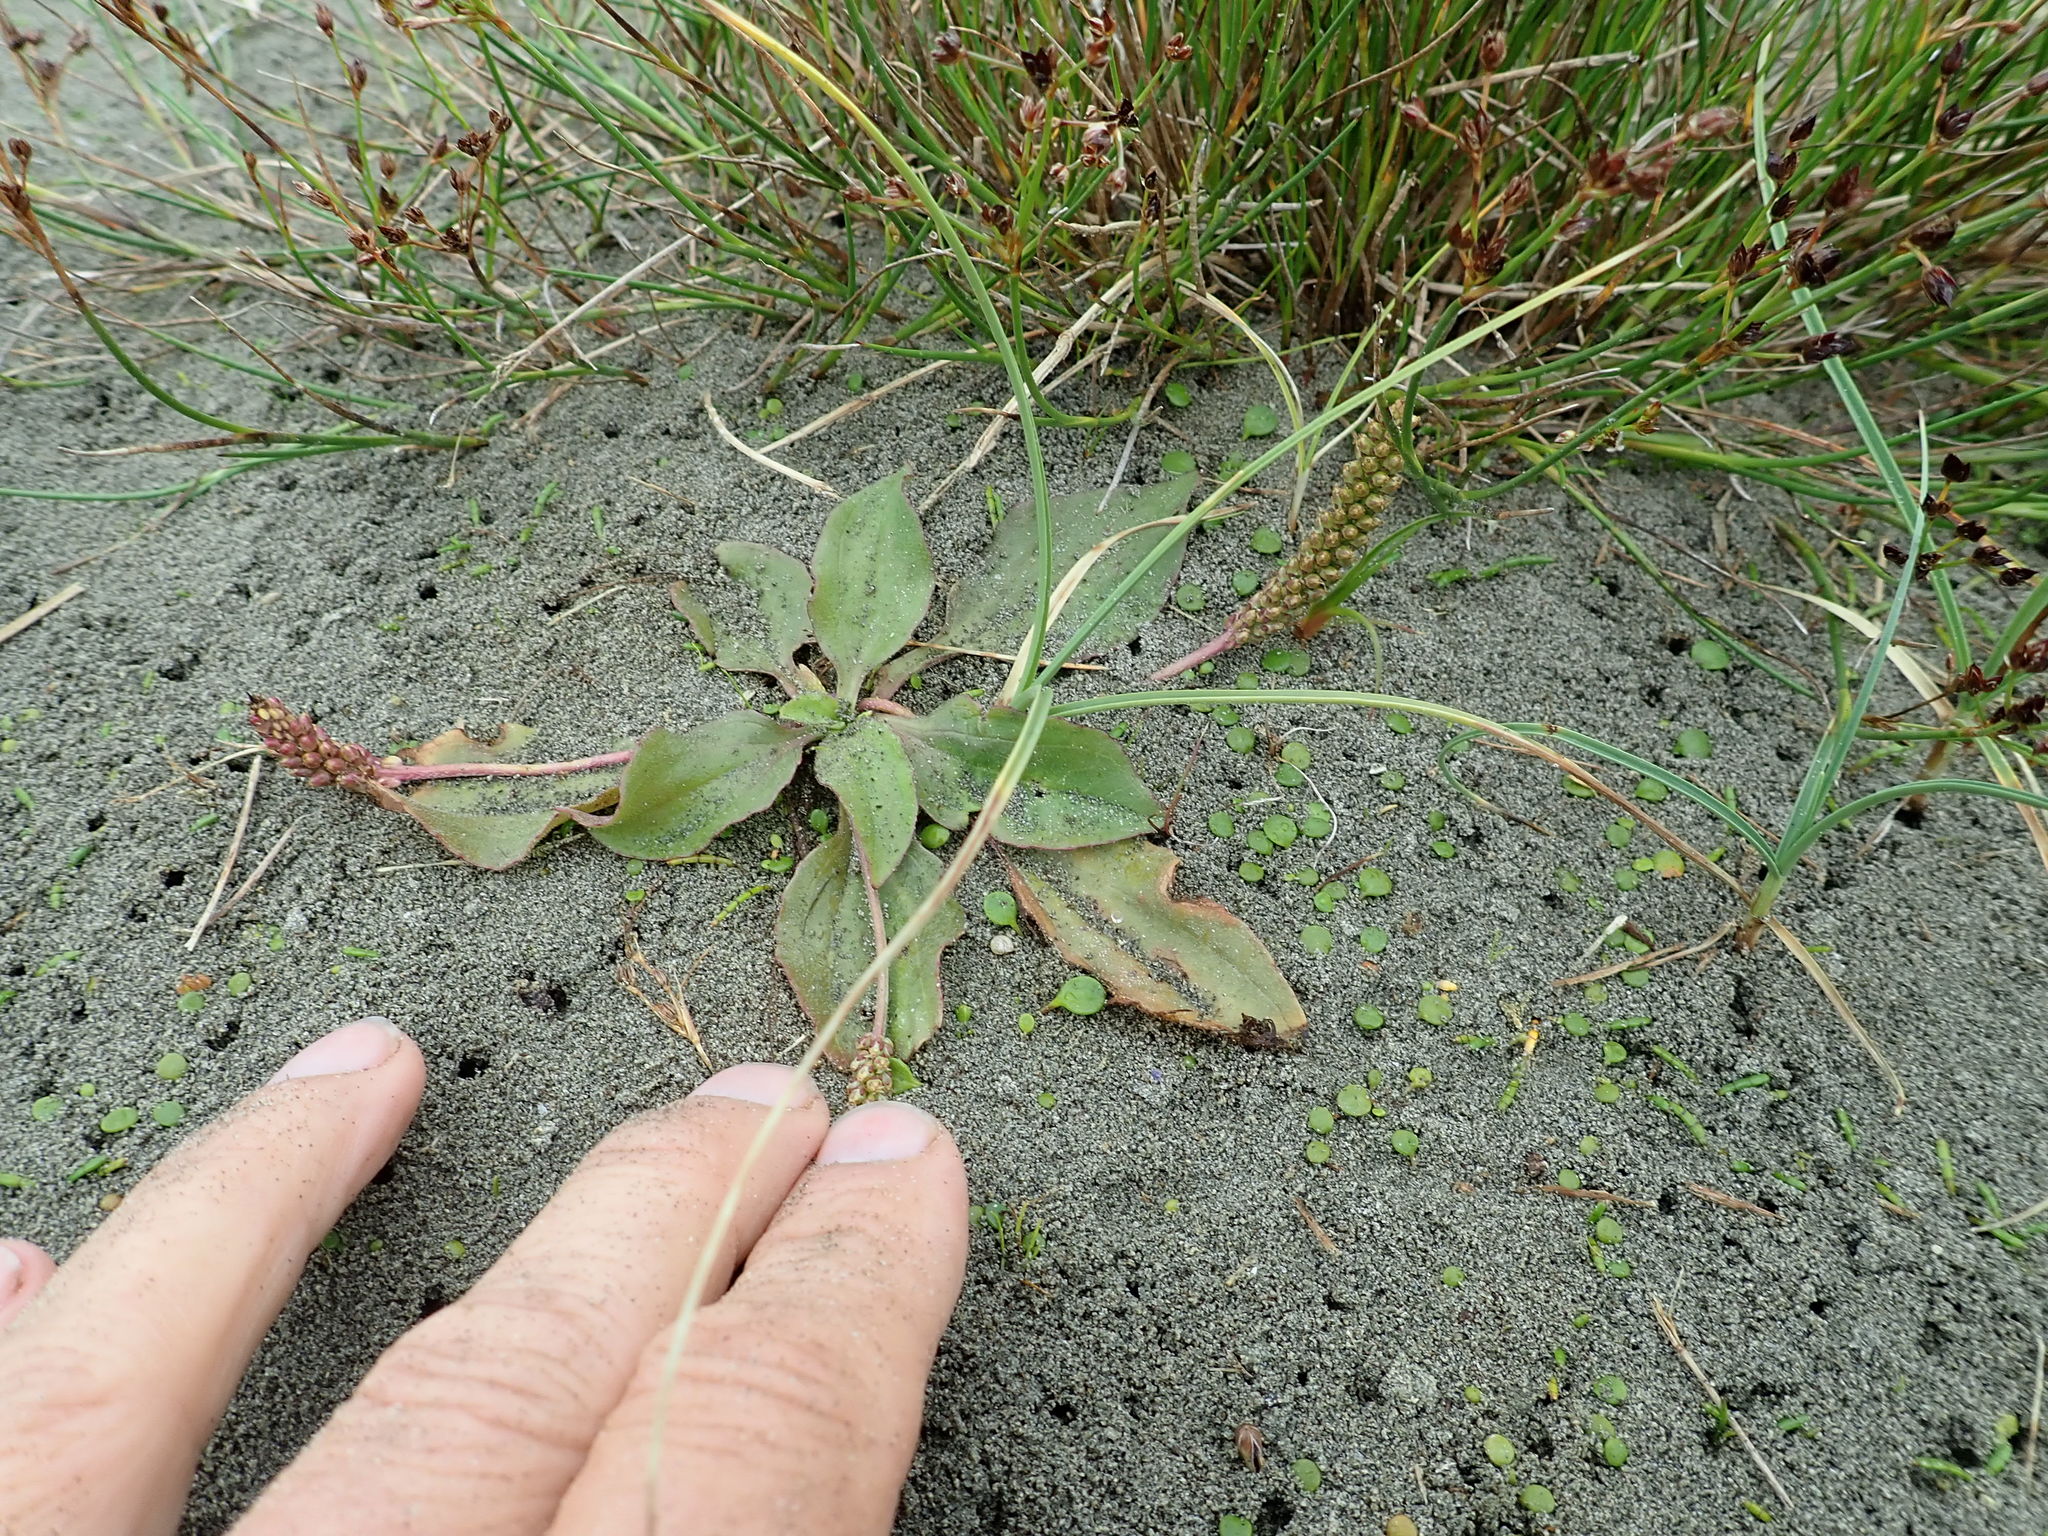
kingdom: Plantae
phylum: Tracheophyta
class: Magnoliopsida
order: Lamiales
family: Plantaginaceae
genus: Plantago
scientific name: Plantago major
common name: Common plantain
